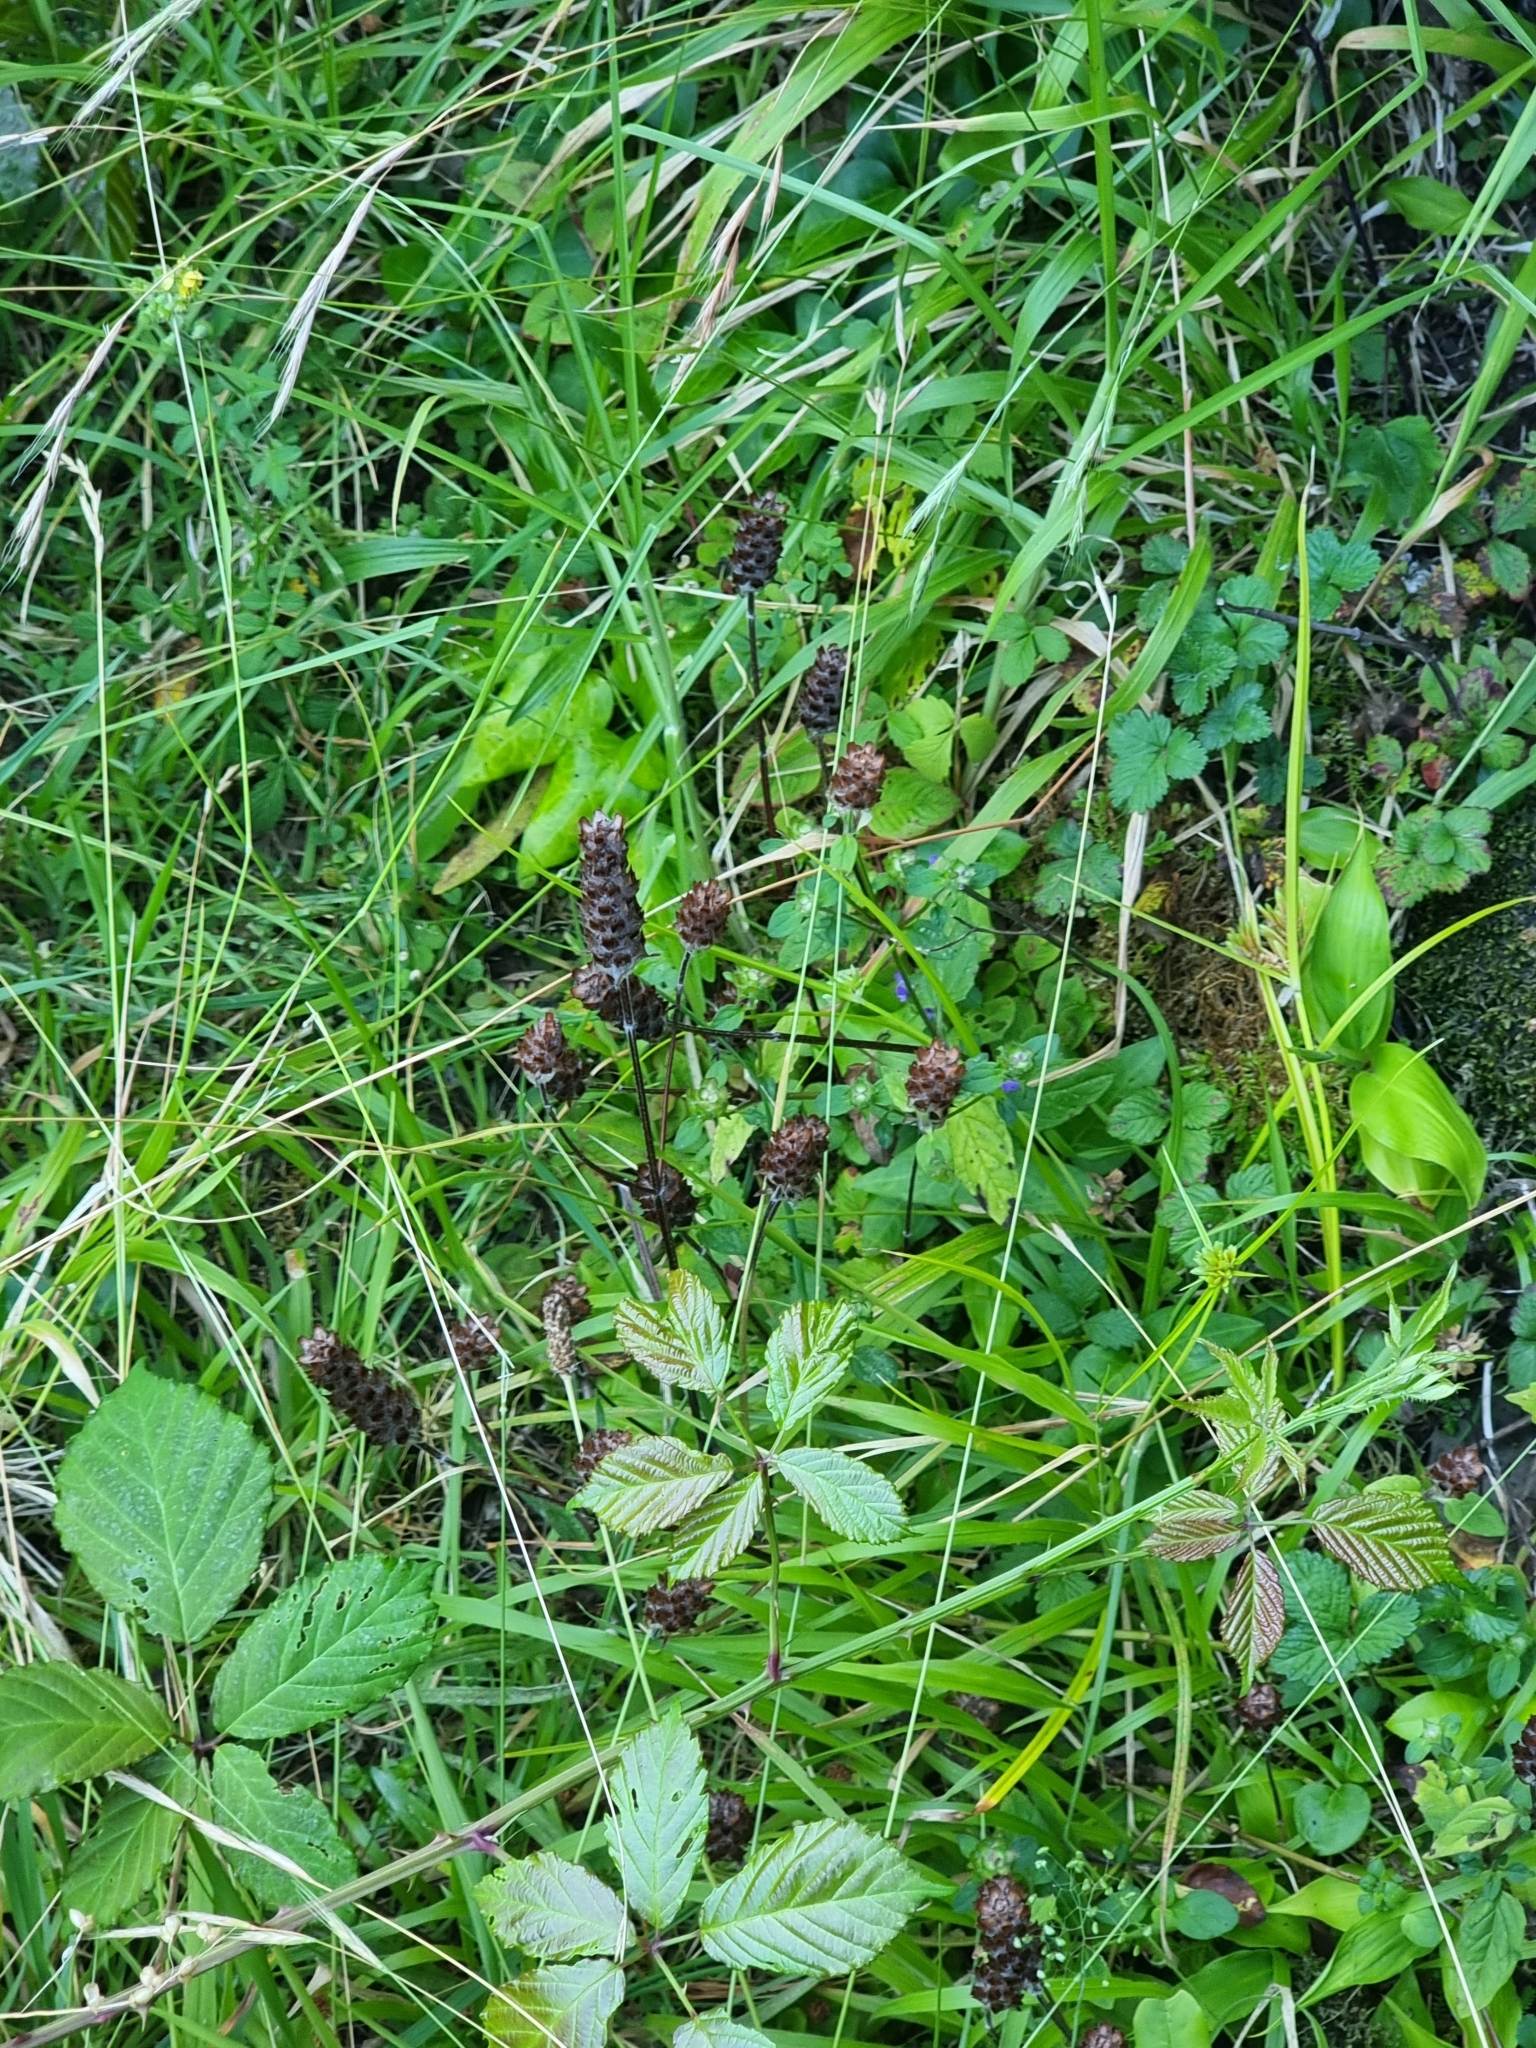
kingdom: Plantae
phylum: Tracheophyta
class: Magnoliopsida
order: Lamiales
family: Lamiaceae
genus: Prunella
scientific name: Prunella vulgaris
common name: Heal-all
